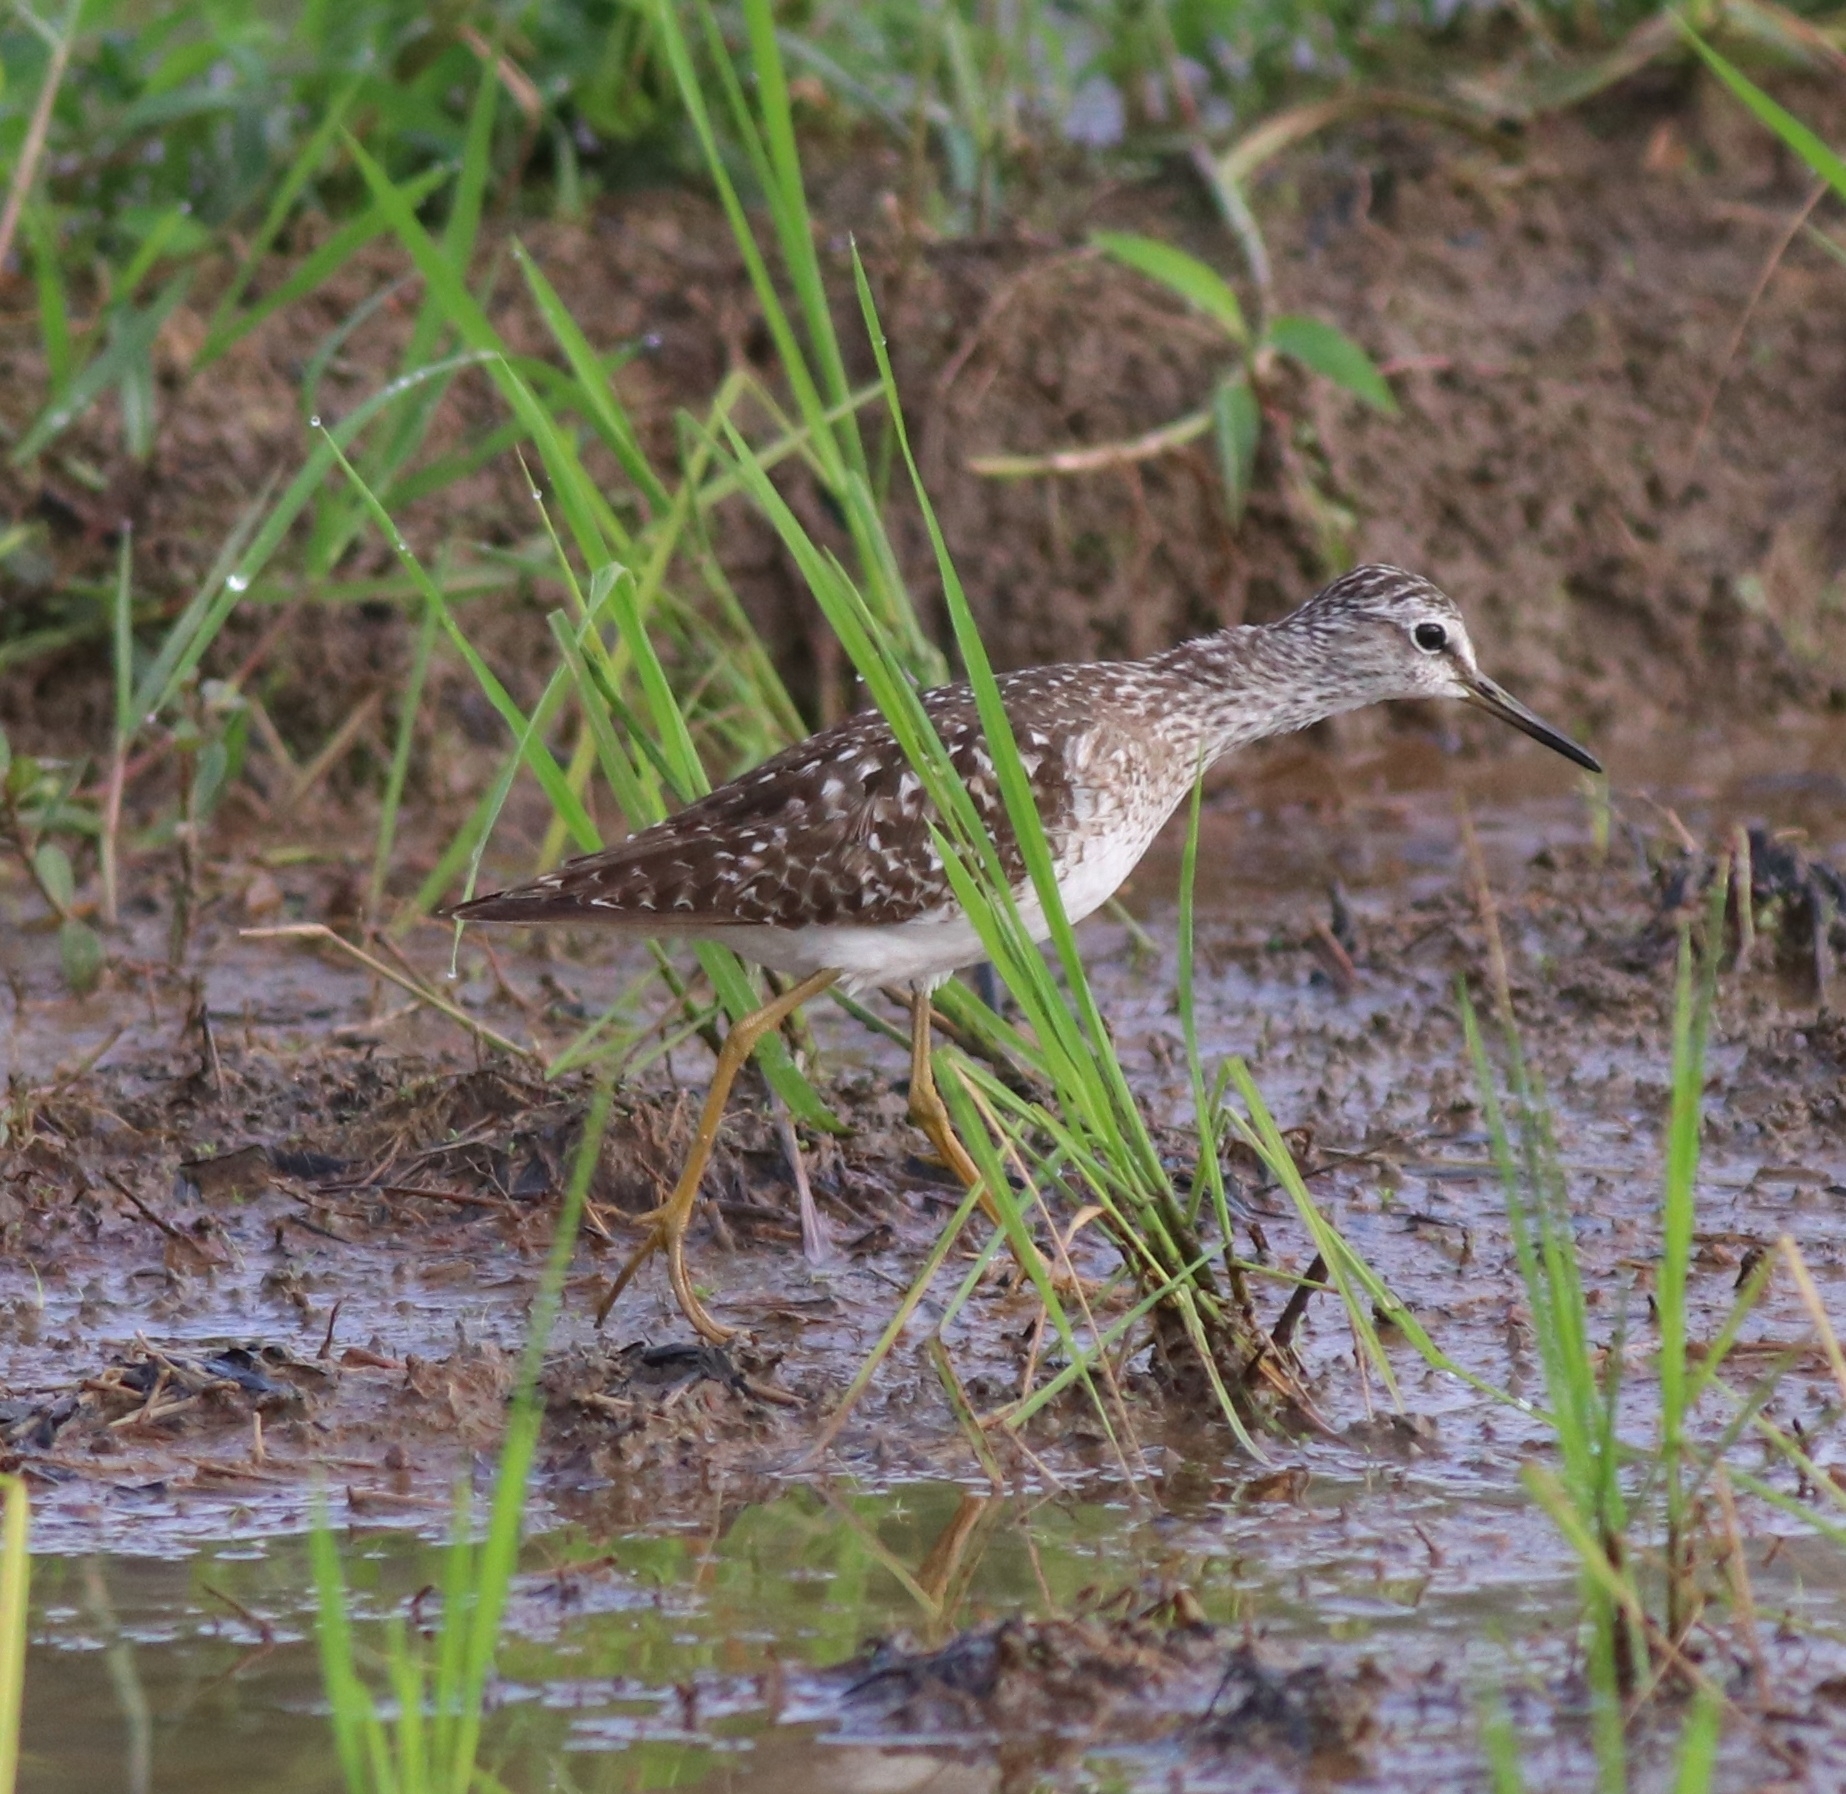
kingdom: Animalia
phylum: Chordata
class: Aves
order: Charadriiformes
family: Scolopacidae
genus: Tringa
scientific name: Tringa glareola
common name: Wood sandpiper
